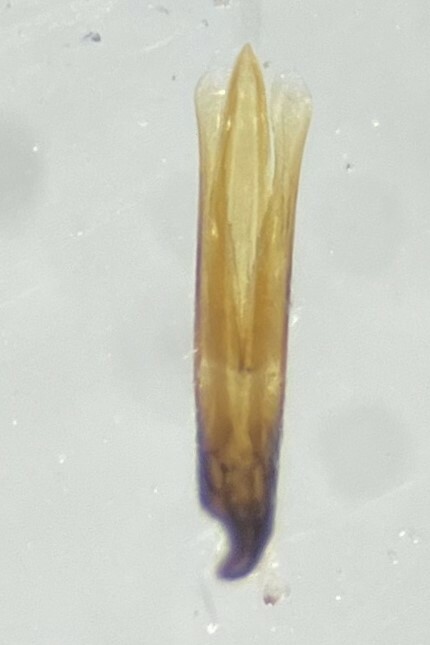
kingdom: Animalia
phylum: Arthropoda
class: Insecta
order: Coleoptera
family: Hydrophilidae
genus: Cercyon
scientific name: Cercyon praetextatus
